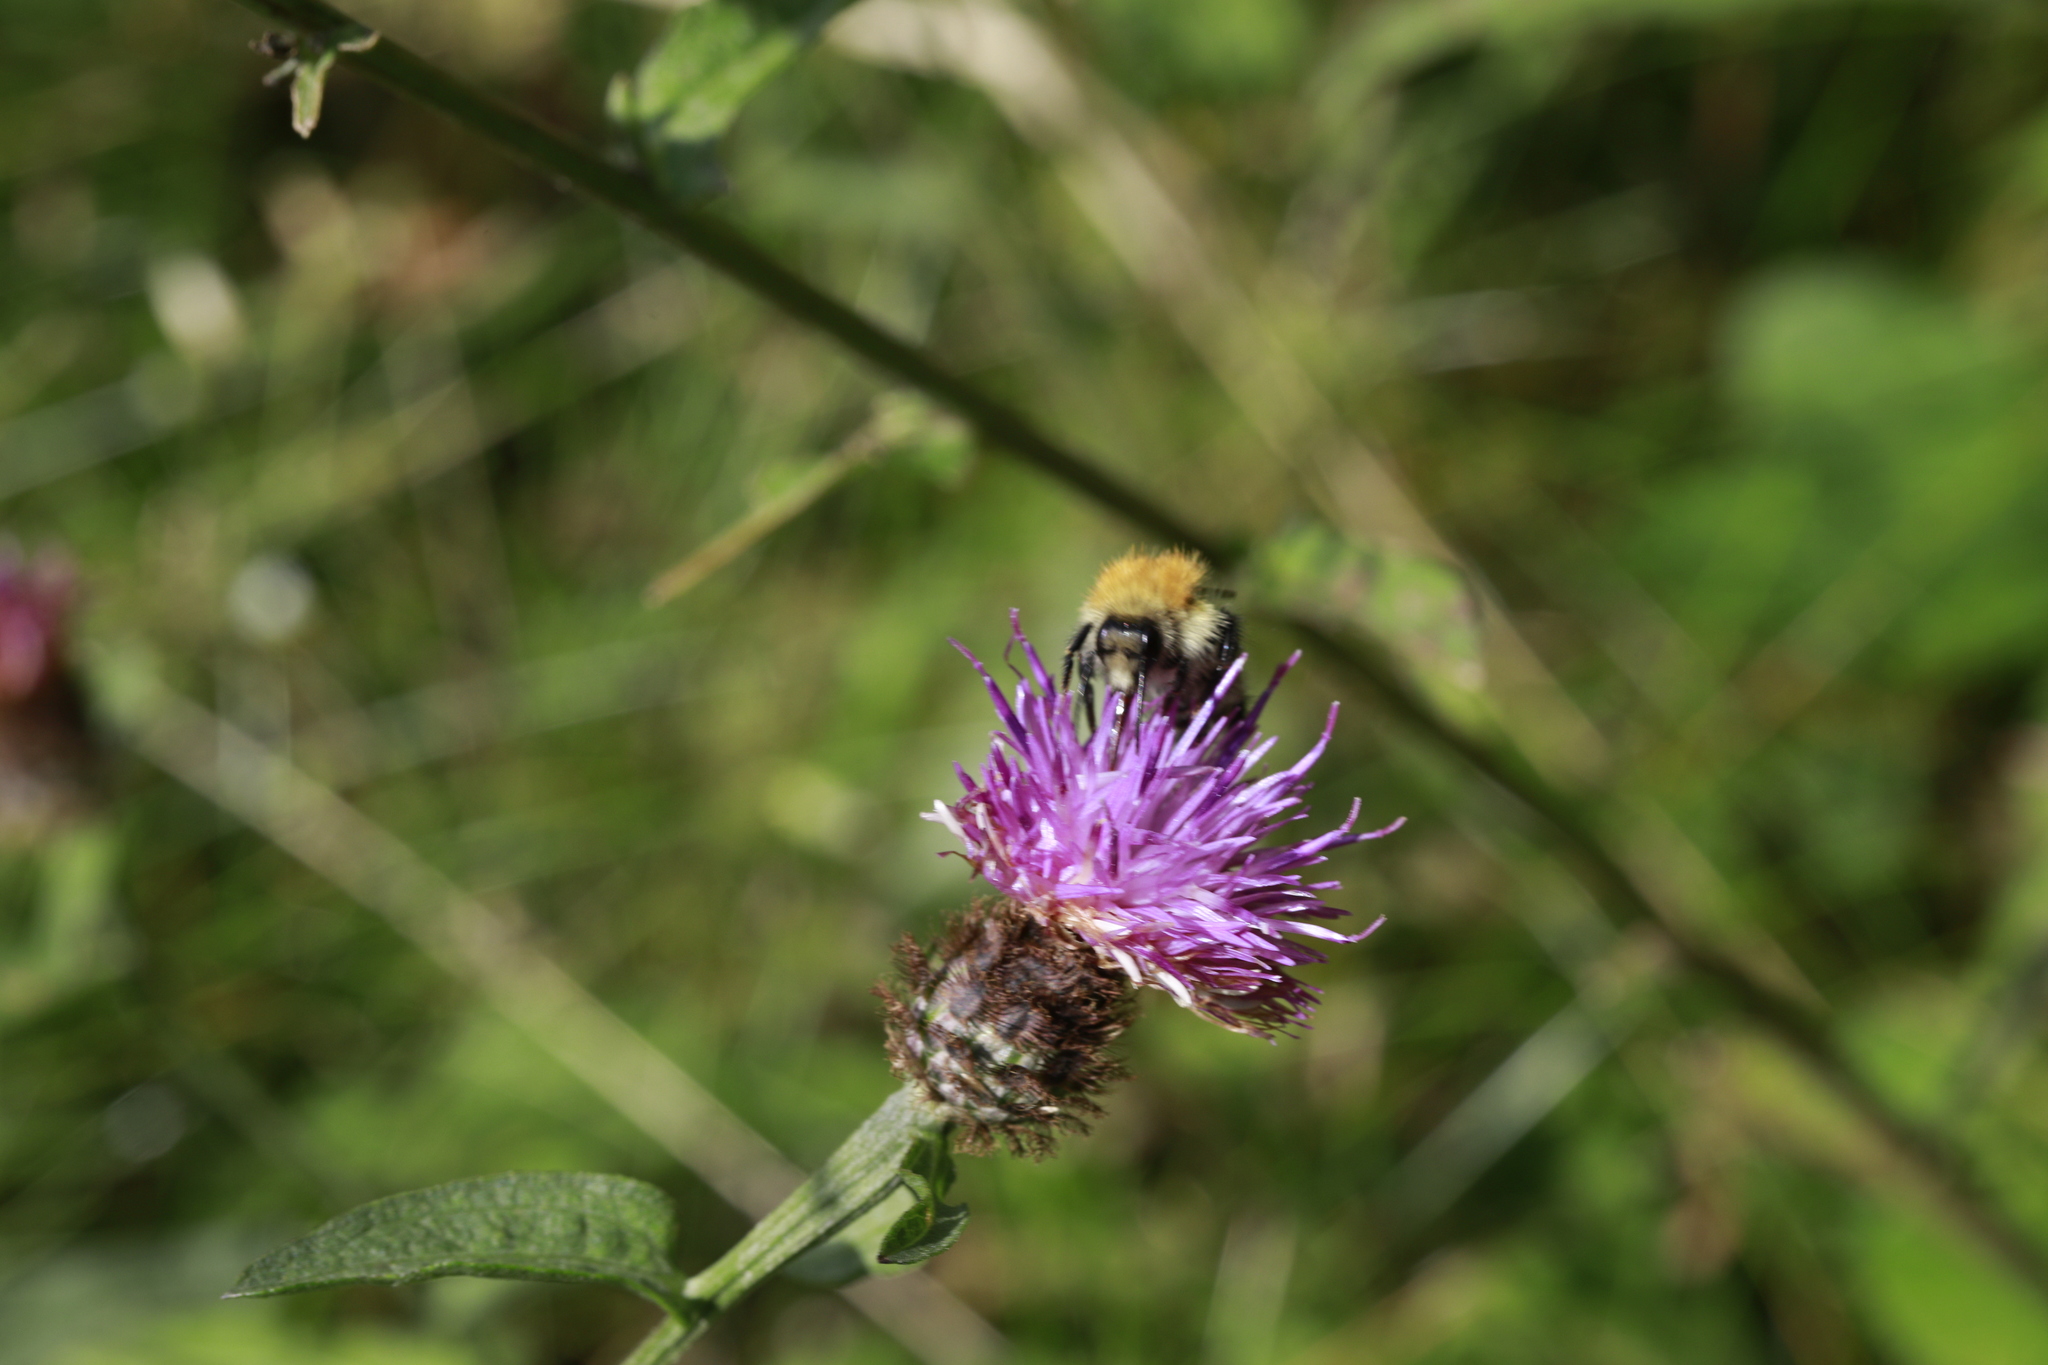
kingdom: Animalia
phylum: Arthropoda
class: Insecta
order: Hymenoptera
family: Apidae
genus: Bombus
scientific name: Bombus pascuorum
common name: Common carder bee
